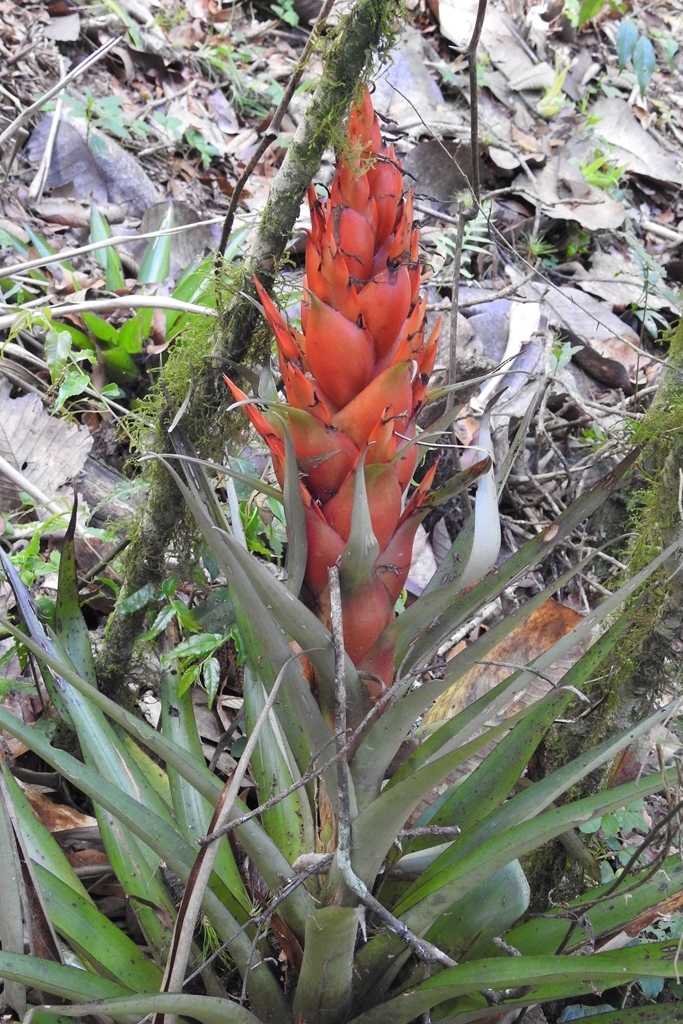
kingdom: Plantae
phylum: Tracheophyta
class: Liliopsida
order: Poales
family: Bromeliaceae
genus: Tillandsia
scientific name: Tillandsia ponderosa
